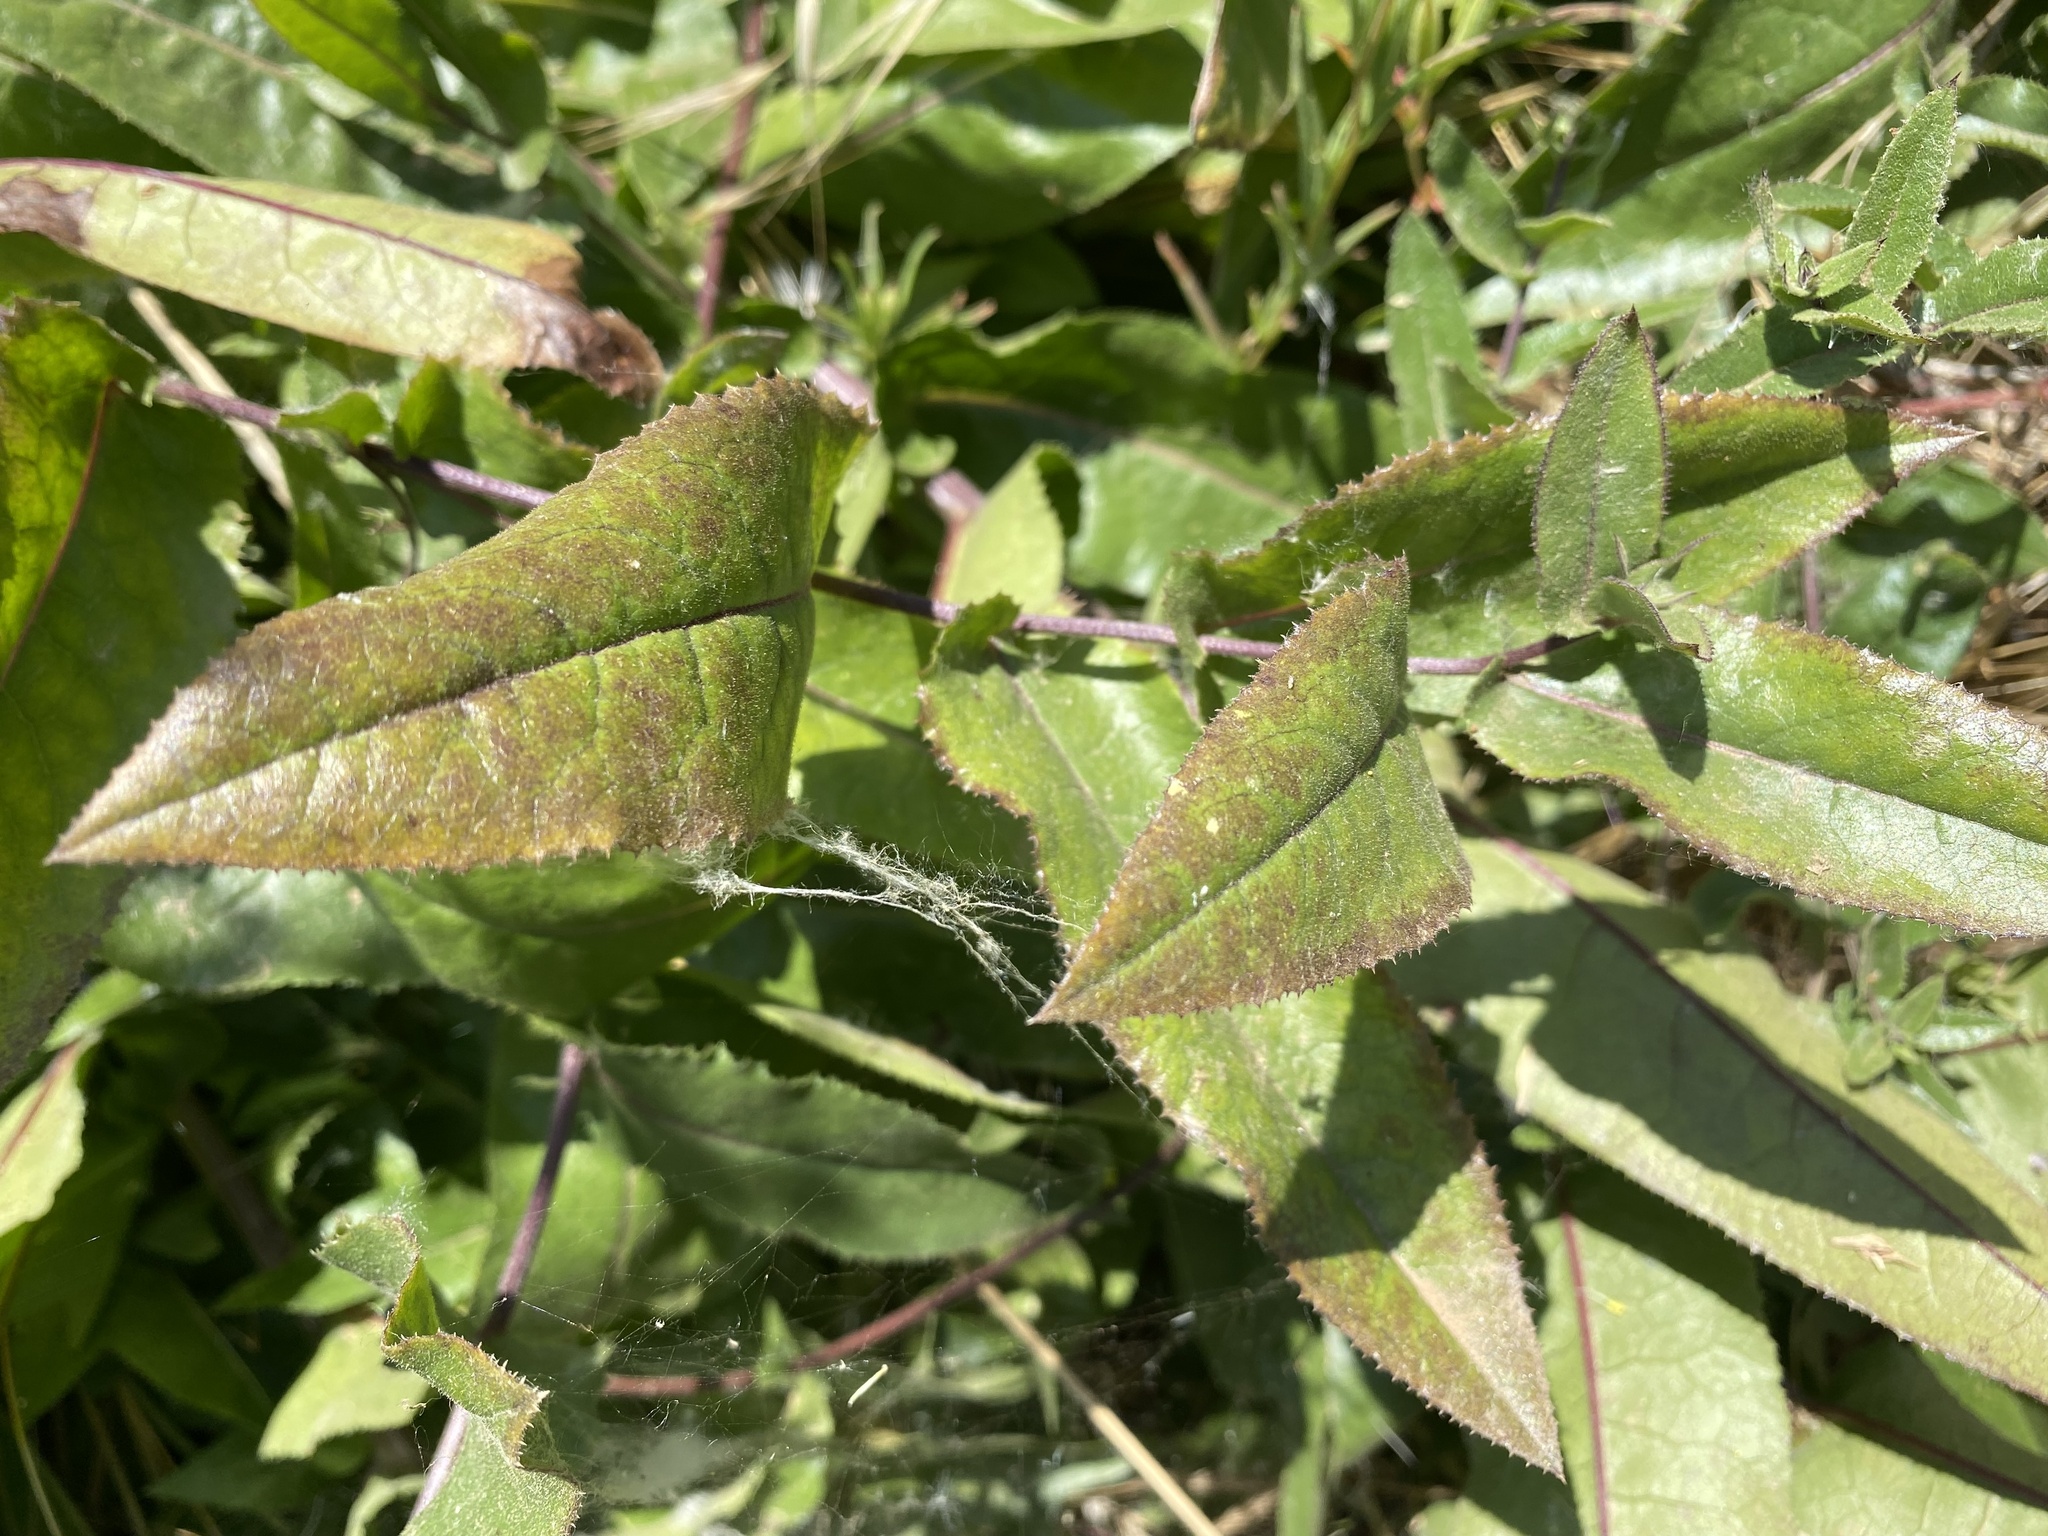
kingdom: Plantae
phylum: Tracheophyta
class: Magnoliopsida
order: Asterales
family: Asteraceae
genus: Acourtia
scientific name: Acourtia microcephala
